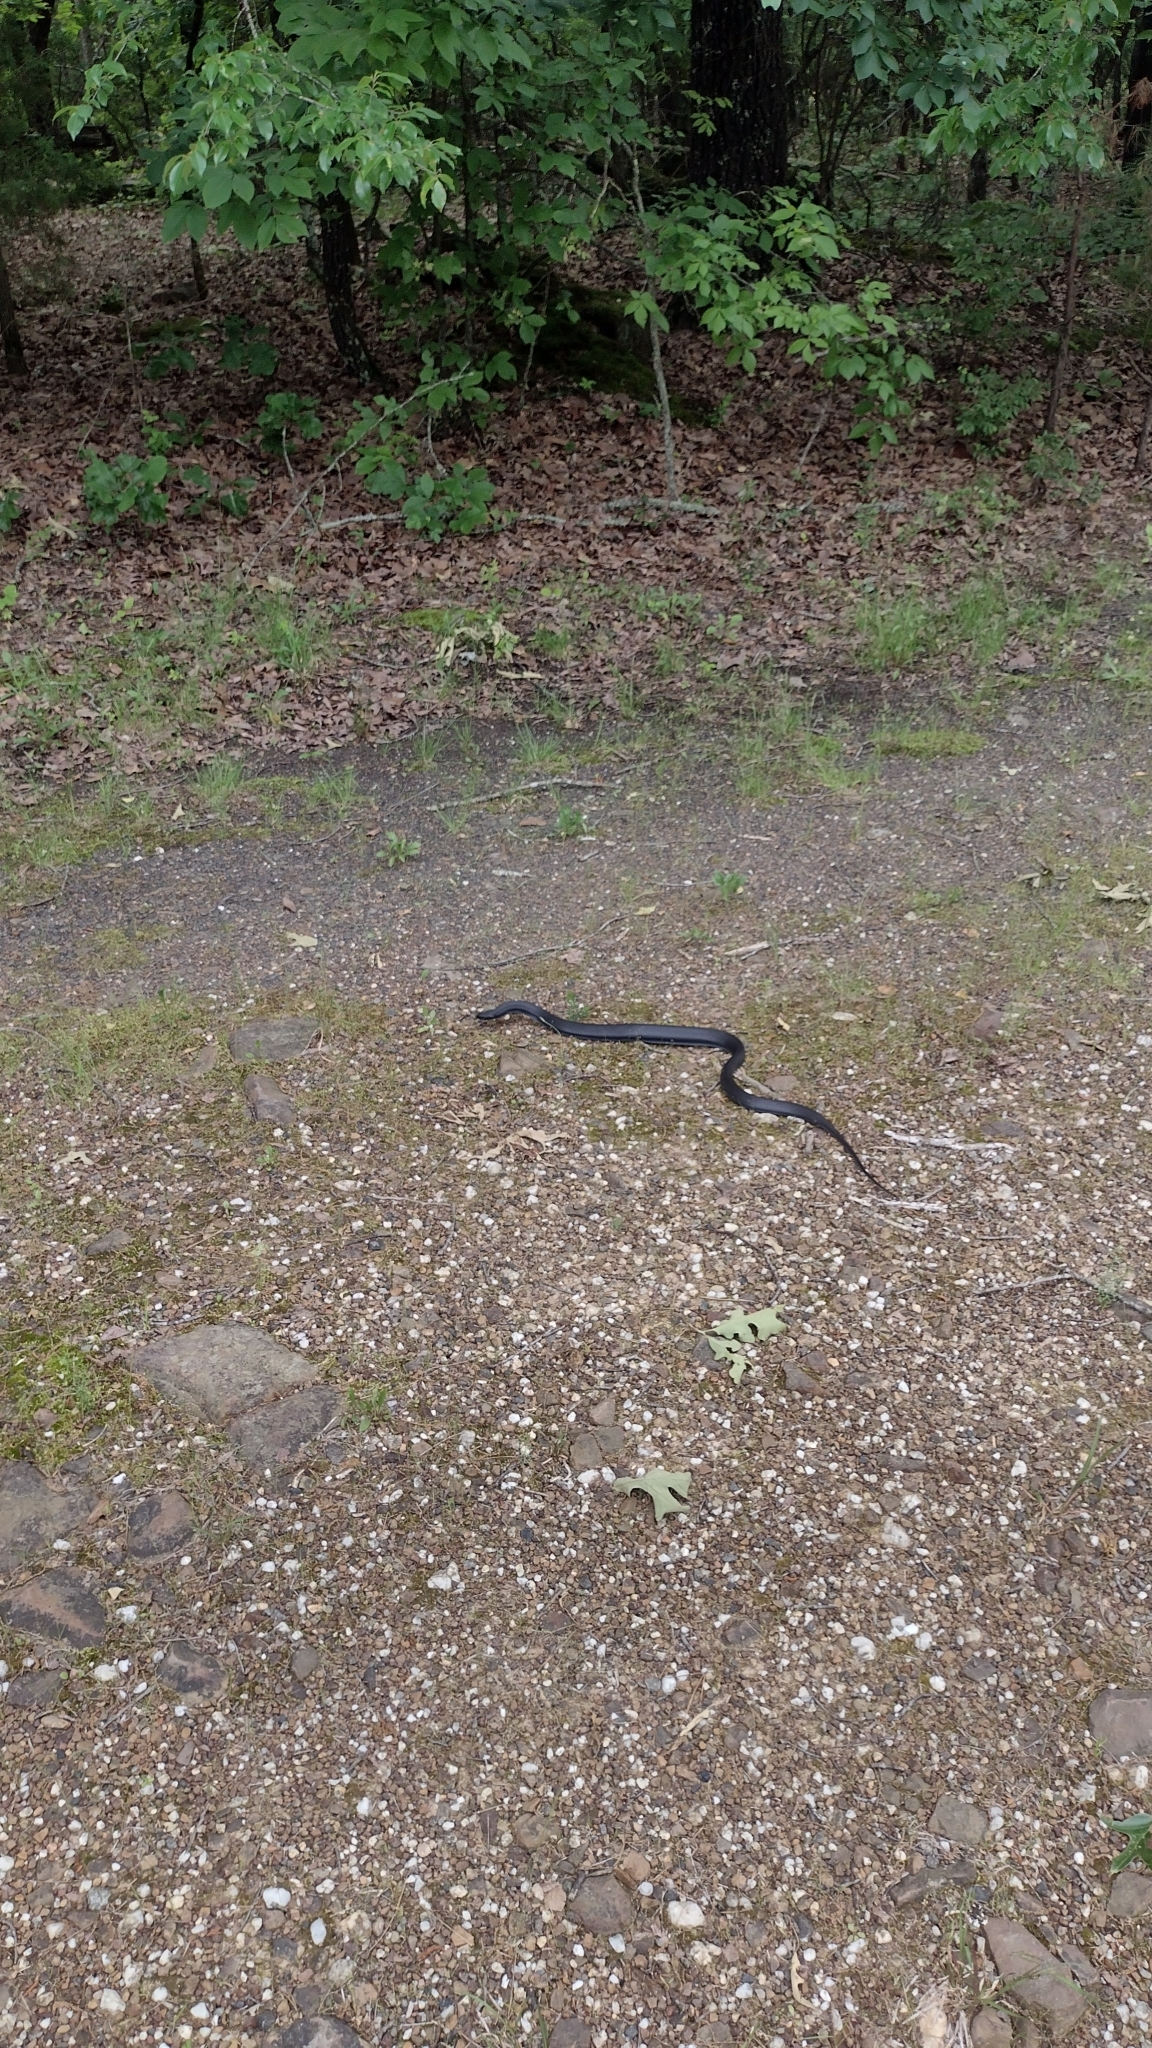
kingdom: Animalia
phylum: Chordata
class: Squamata
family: Colubridae
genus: Coluber
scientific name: Coluber constrictor
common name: Eastern racer
